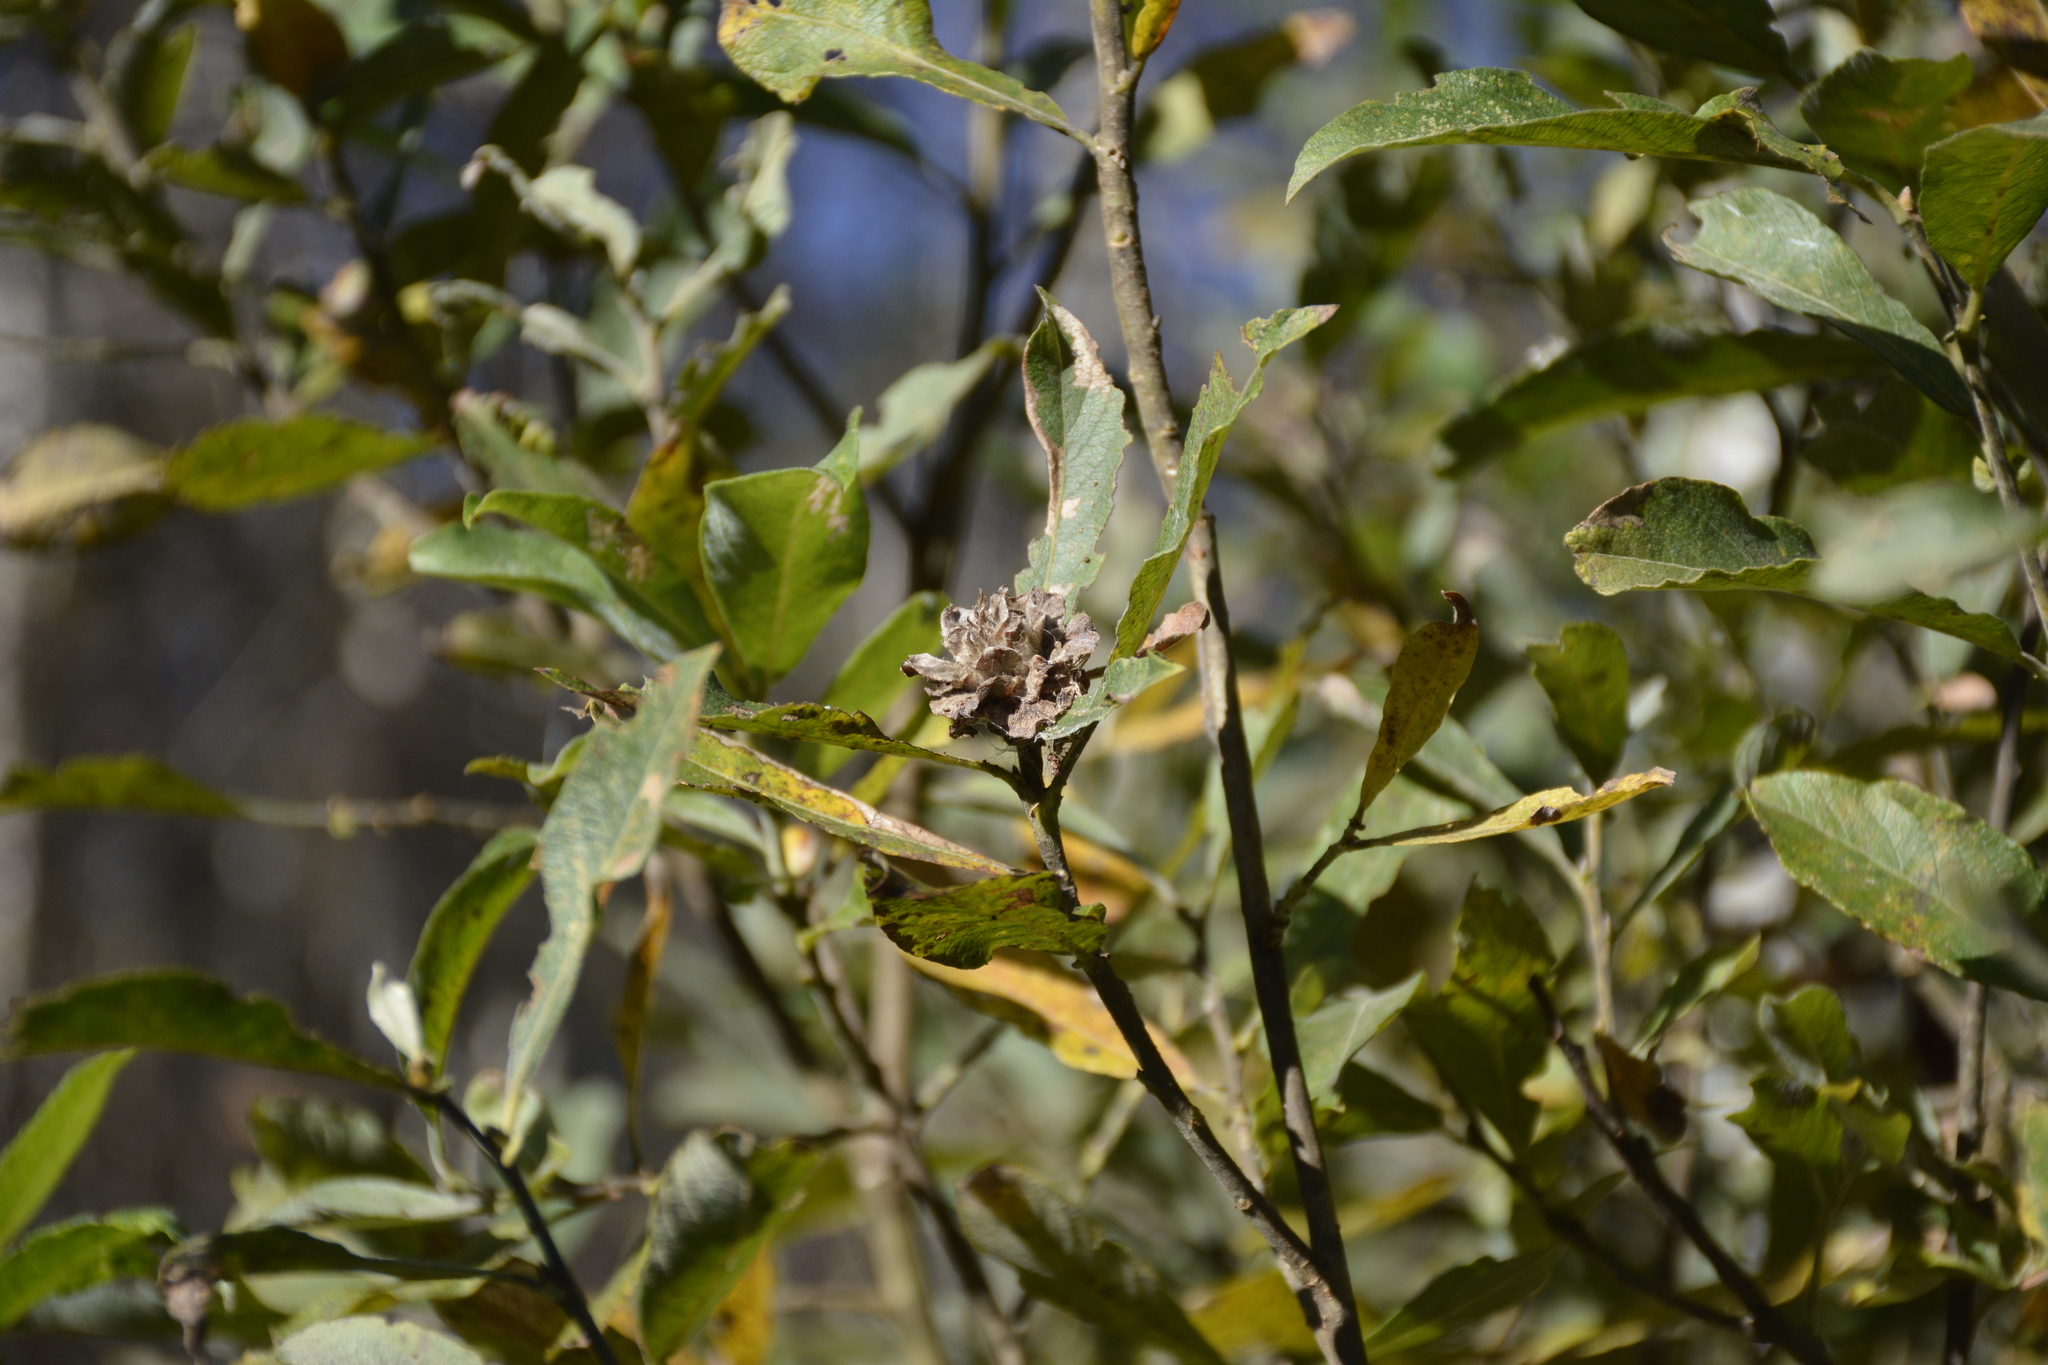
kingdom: Plantae
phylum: Tracheophyta
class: Magnoliopsida
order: Malpighiales
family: Salicaceae
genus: Salix
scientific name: Salix cinerea
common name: Common sallow
